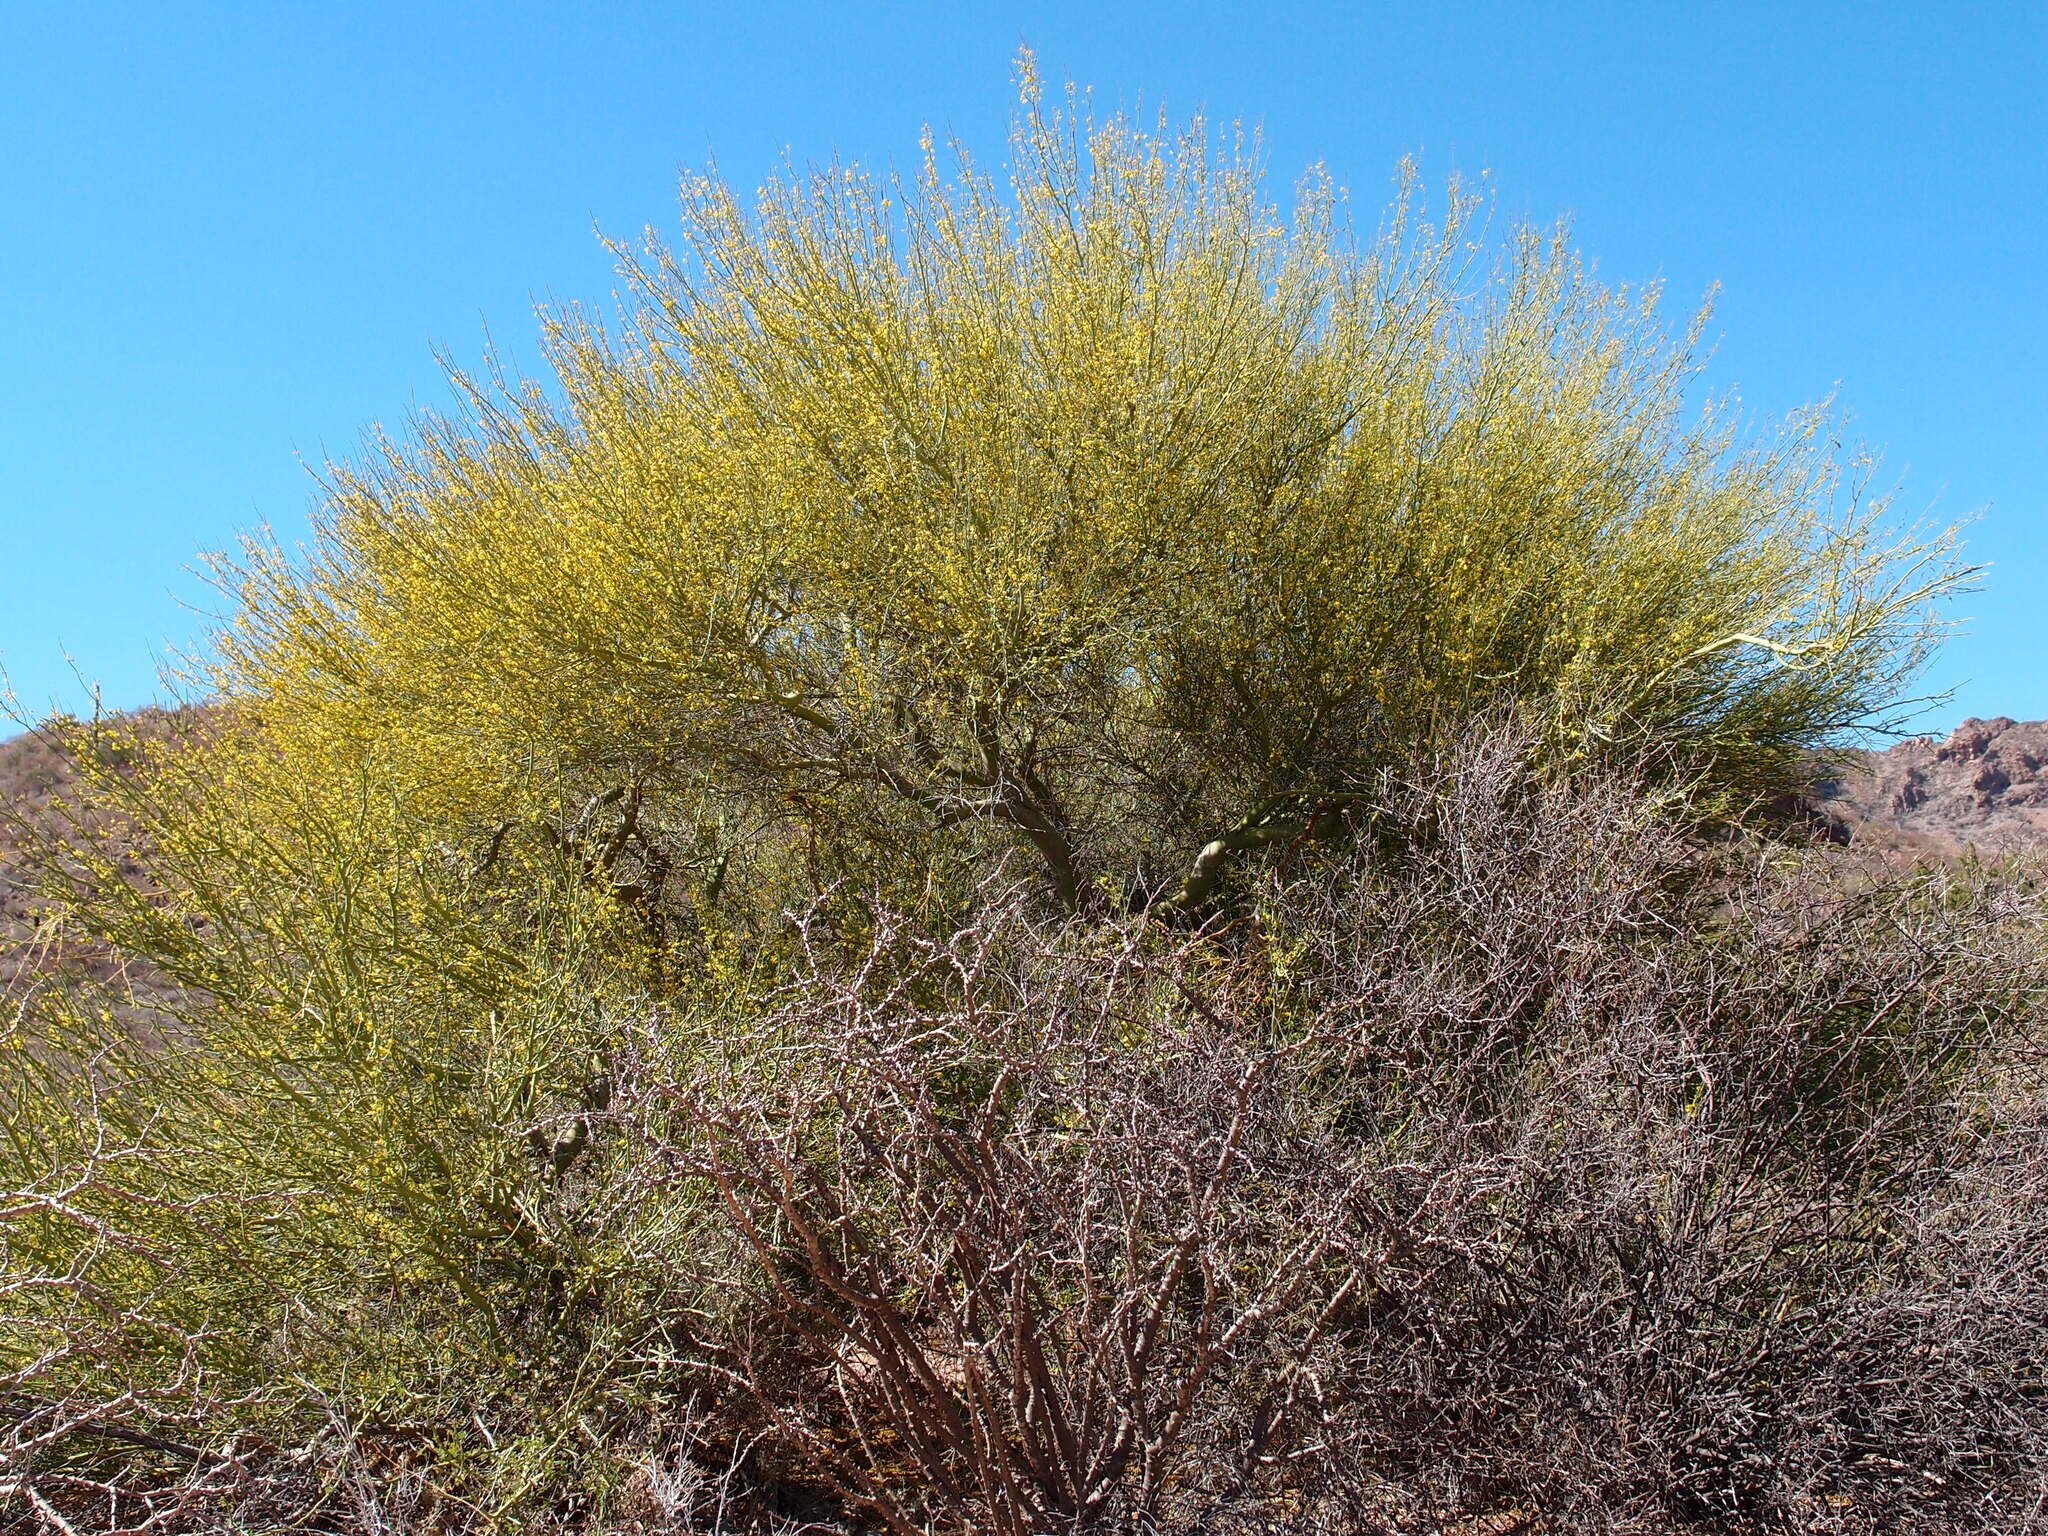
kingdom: Plantae
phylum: Tracheophyta
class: Magnoliopsida
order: Fabales
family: Fabaceae
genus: Parkinsonia
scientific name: Parkinsonia florida
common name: Blue paloverde
